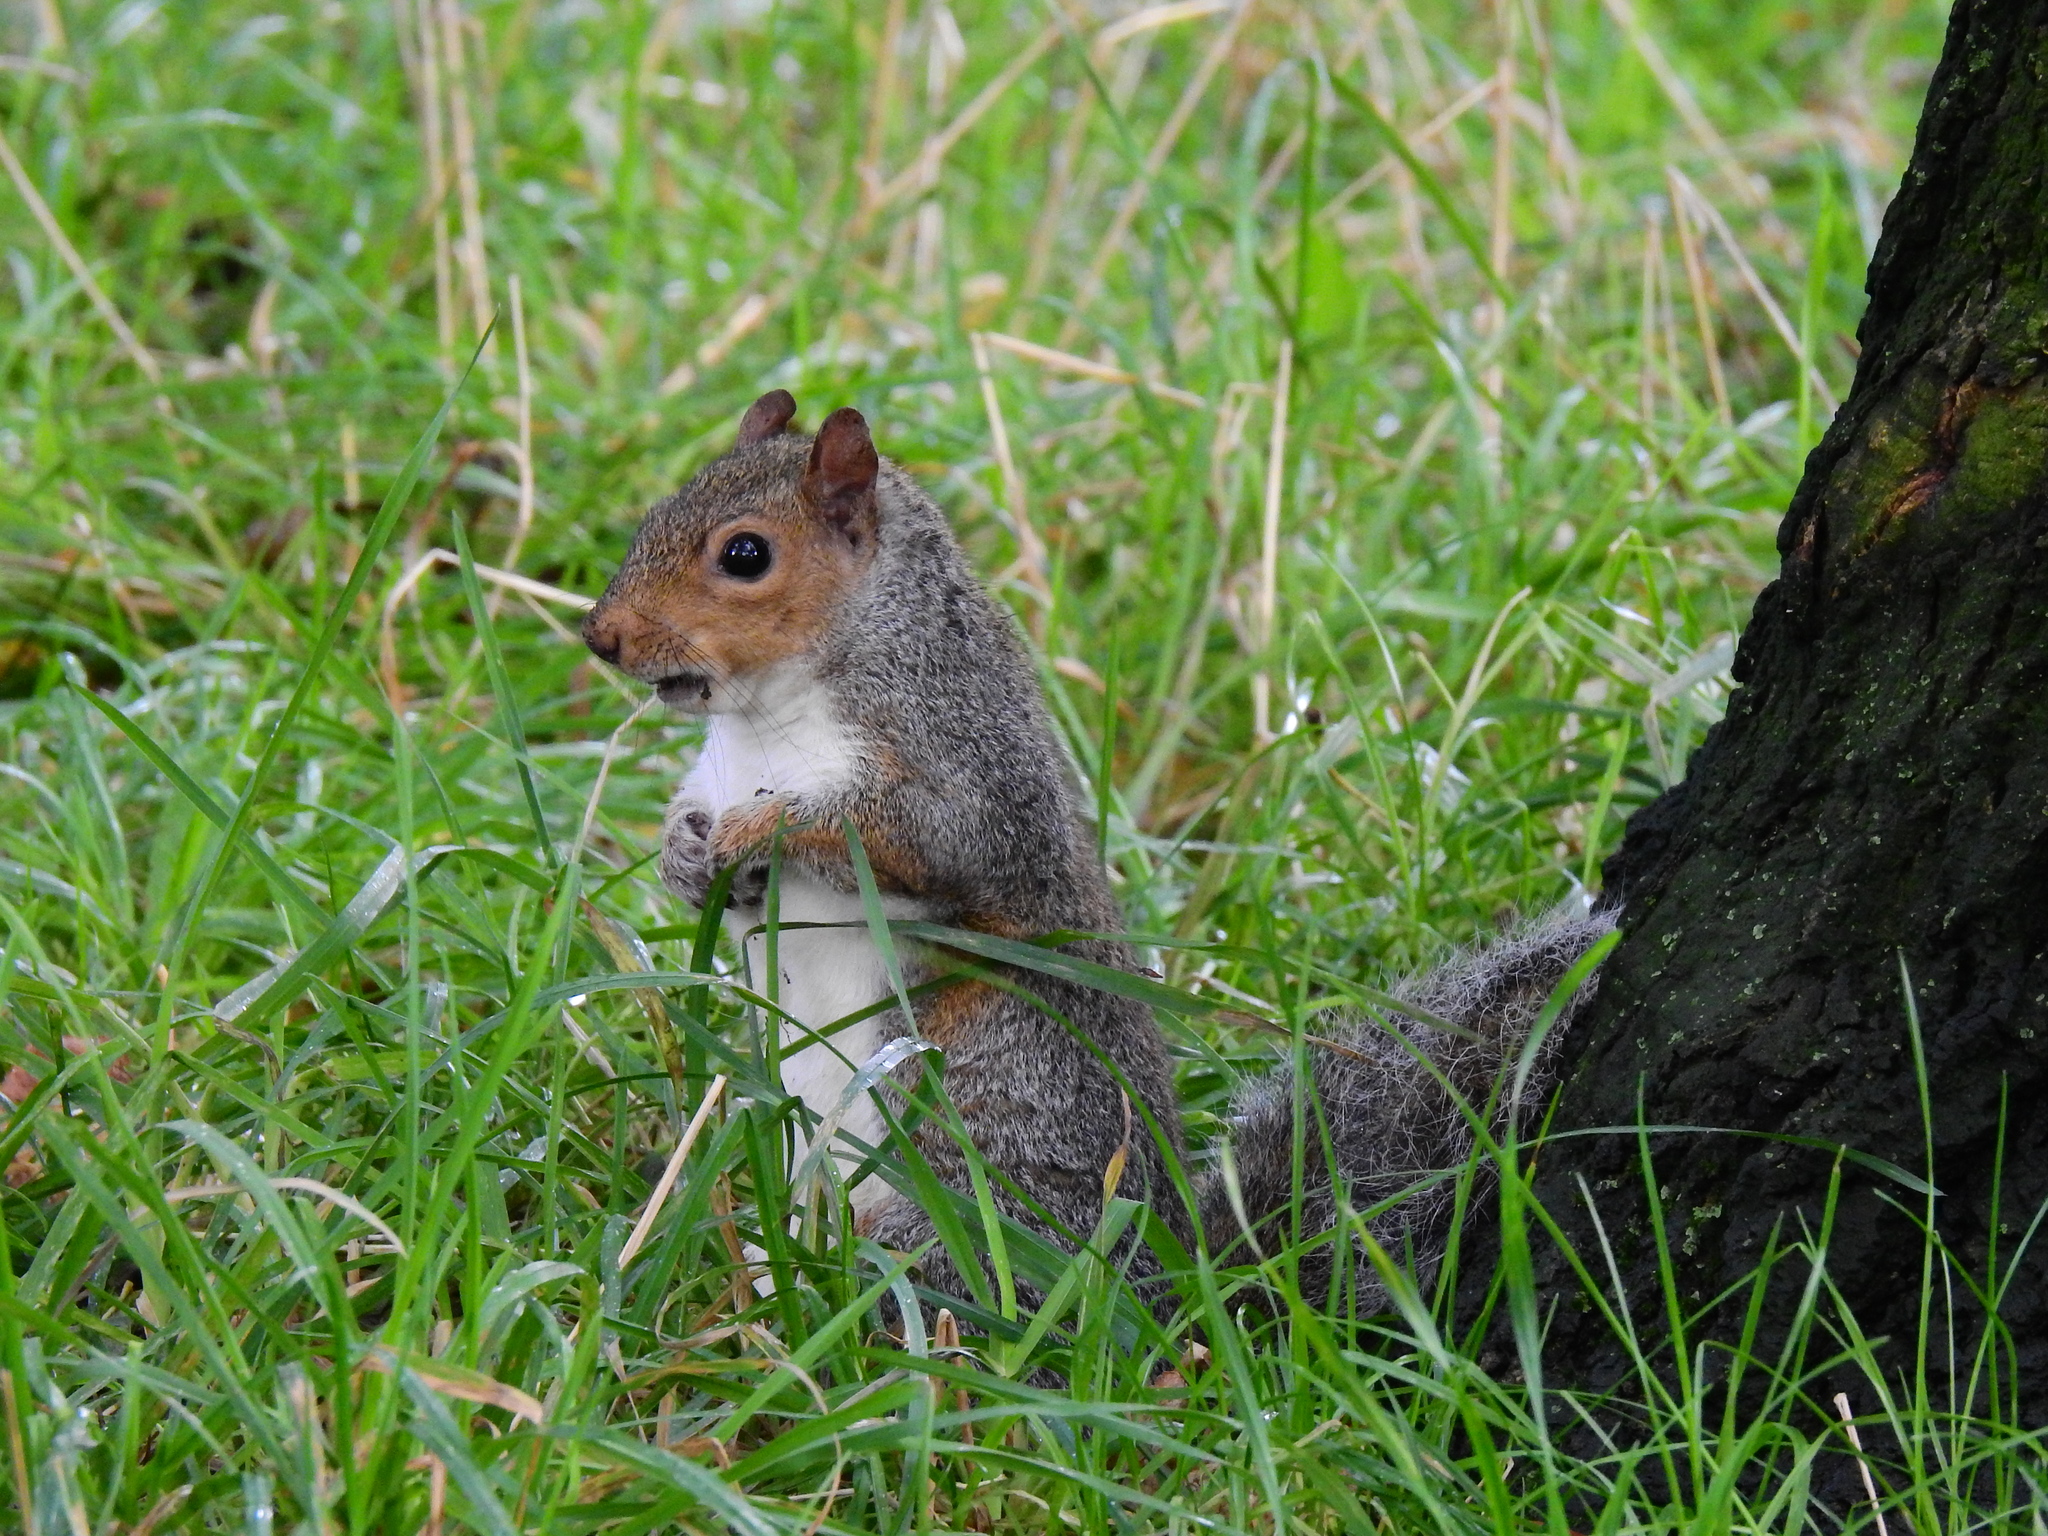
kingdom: Animalia
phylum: Chordata
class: Mammalia
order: Rodentia
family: Sciuridae
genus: Sciurus
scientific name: Sciurus carolinensis
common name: Eastern gray squirrel
